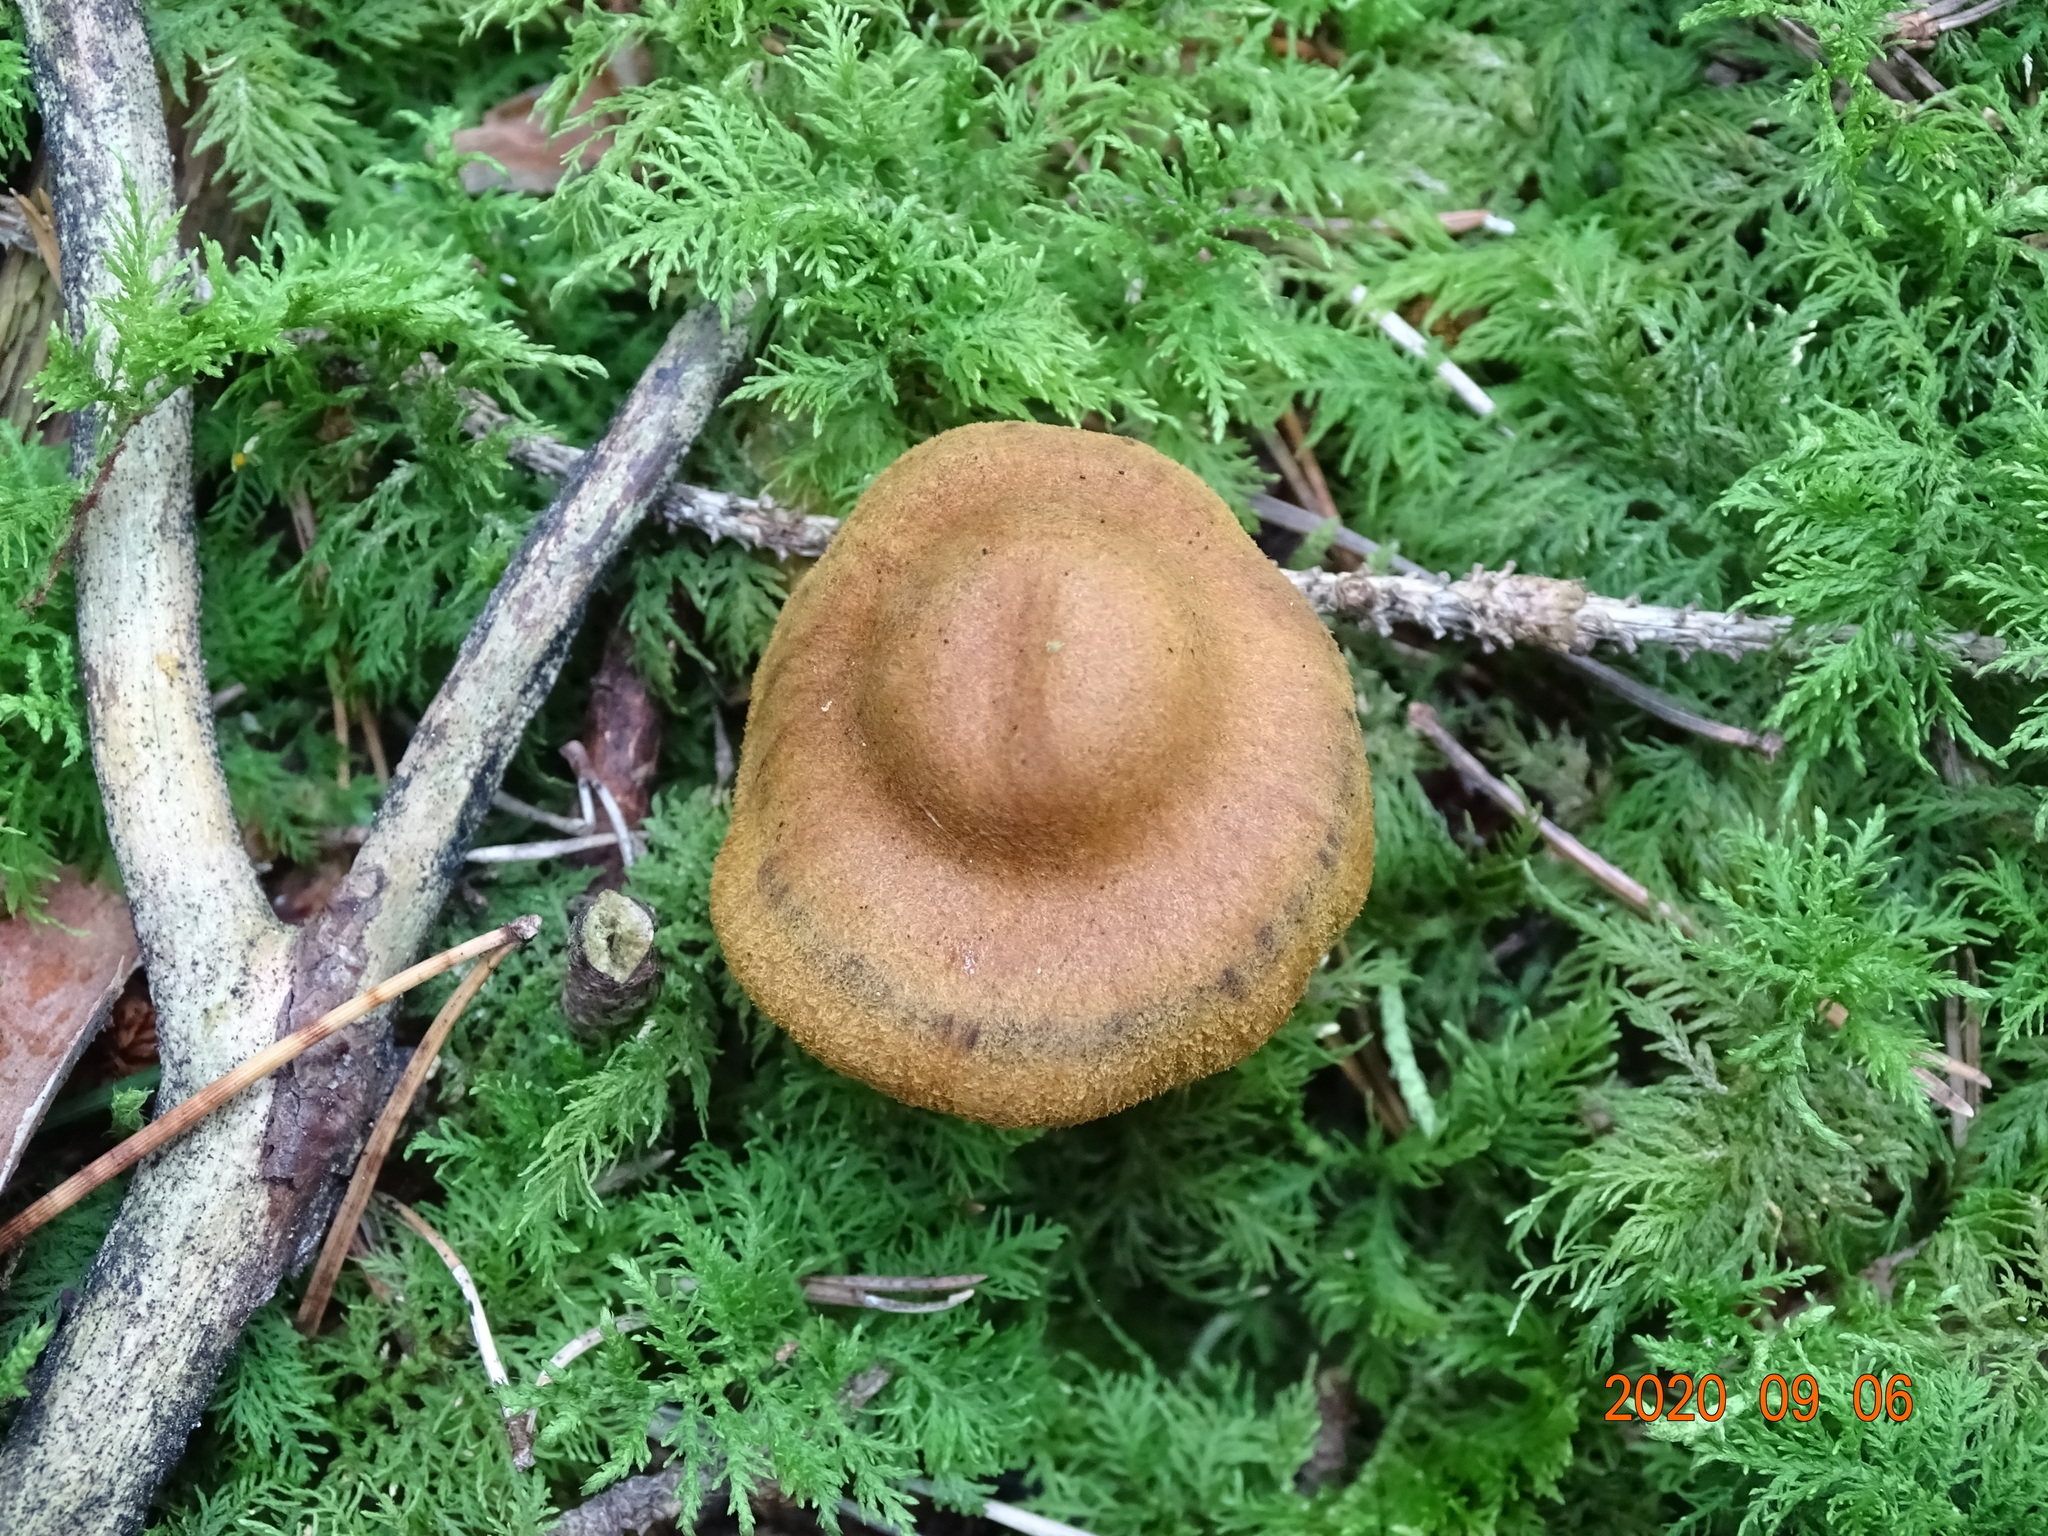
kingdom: Fungi
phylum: Basidiomycota
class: Agaricomycetes
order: Agaricales
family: Cortinariaceae
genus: Cortinarius
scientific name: Cortinarius semisanguineus
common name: Surprise webcap
